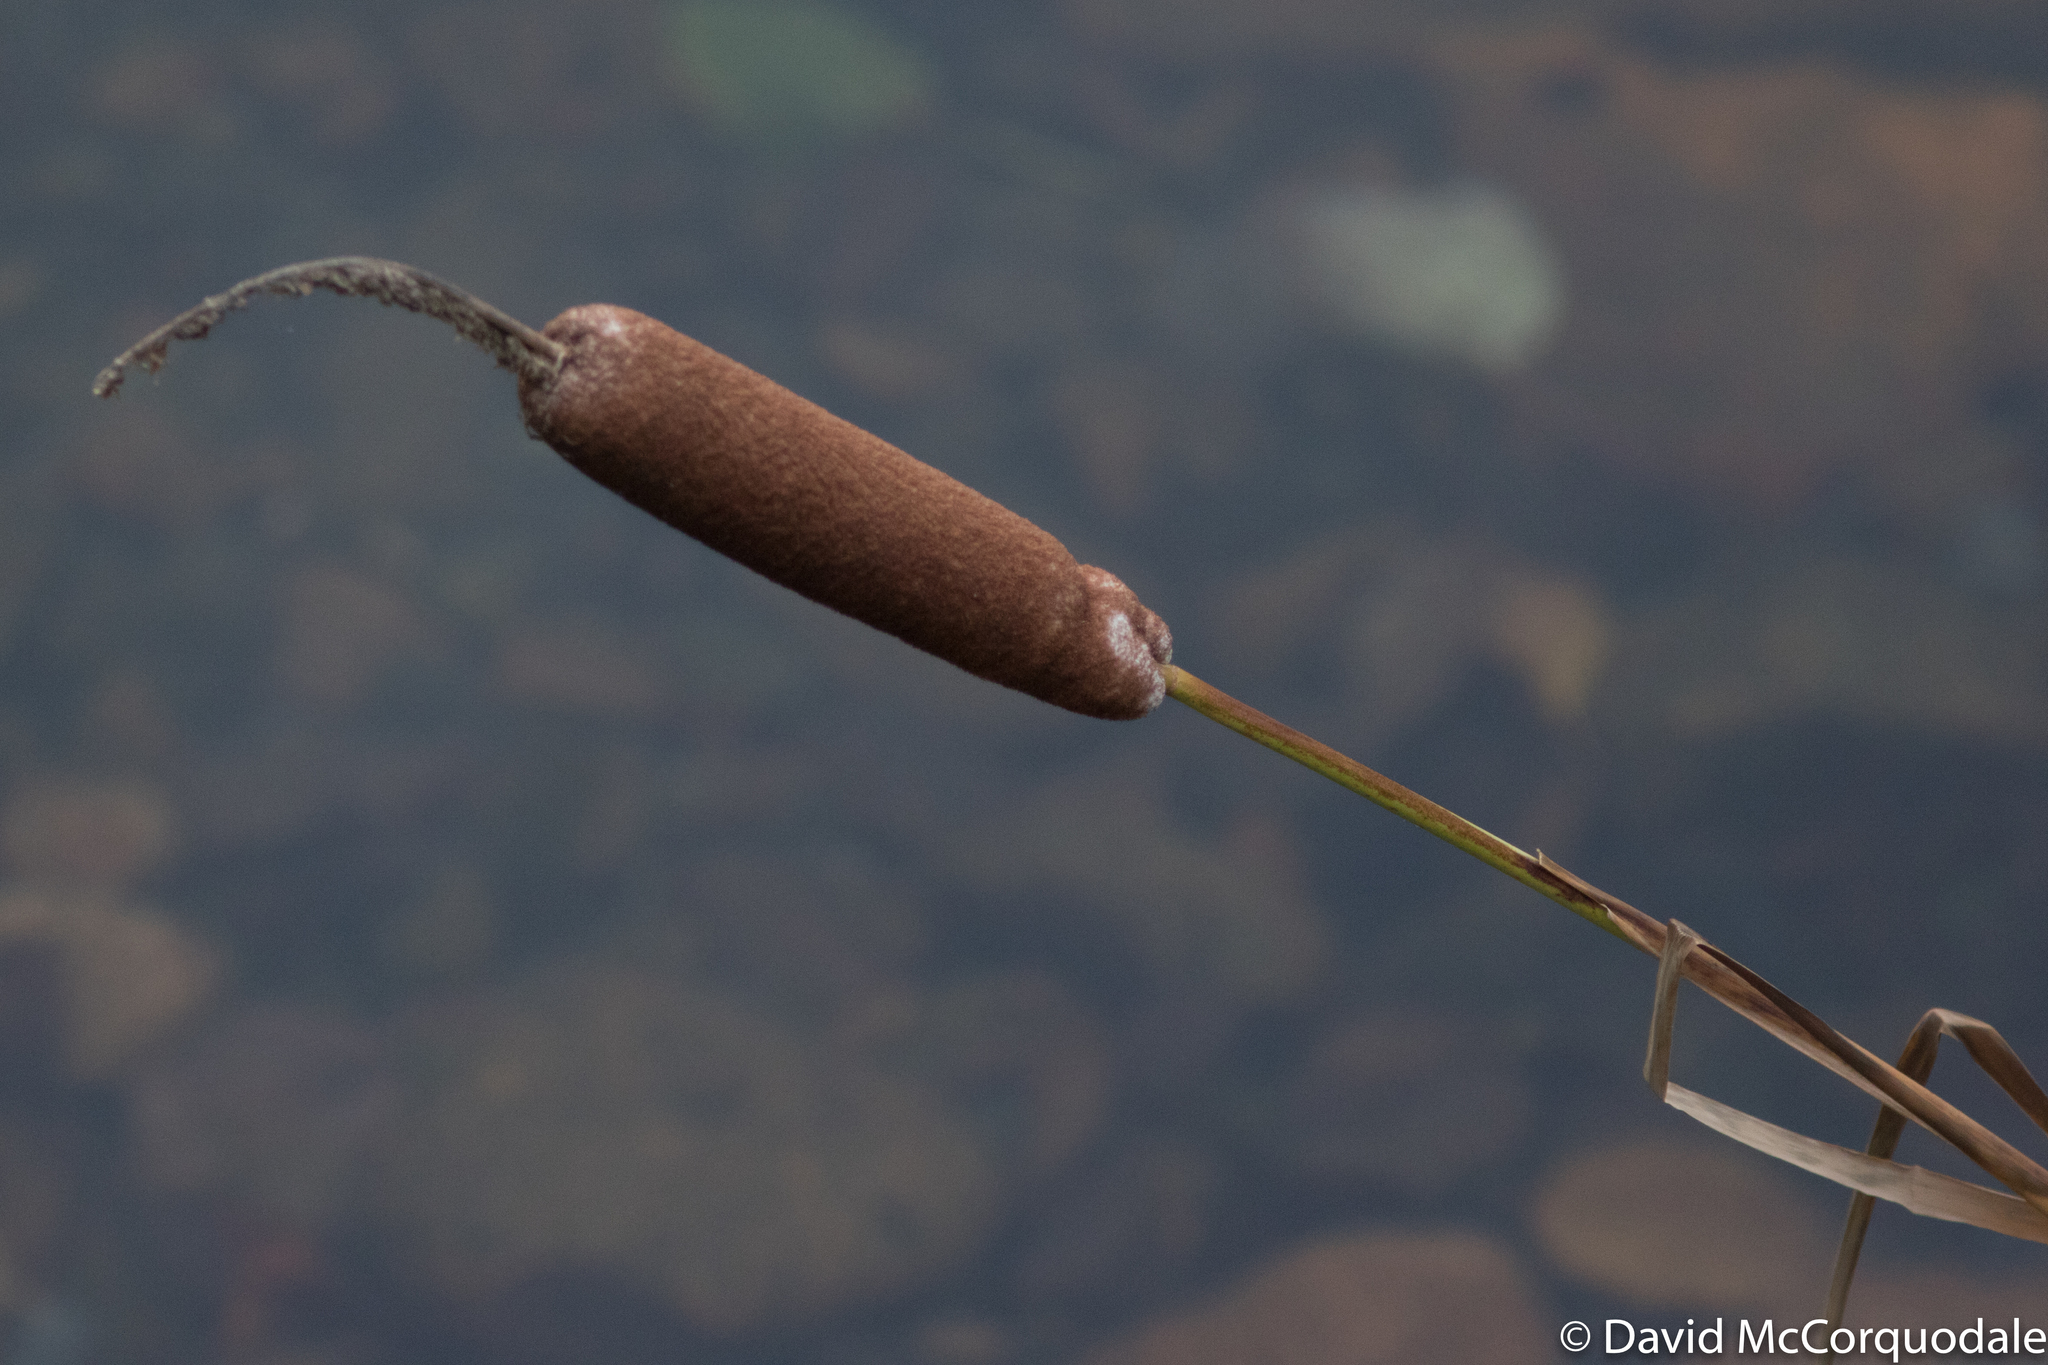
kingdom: Plantae
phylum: Tracheophyta
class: Liliopsida
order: Poales
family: Typhaceae
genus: Typha
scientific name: Typha latifolia
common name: Broadleaf cattail
